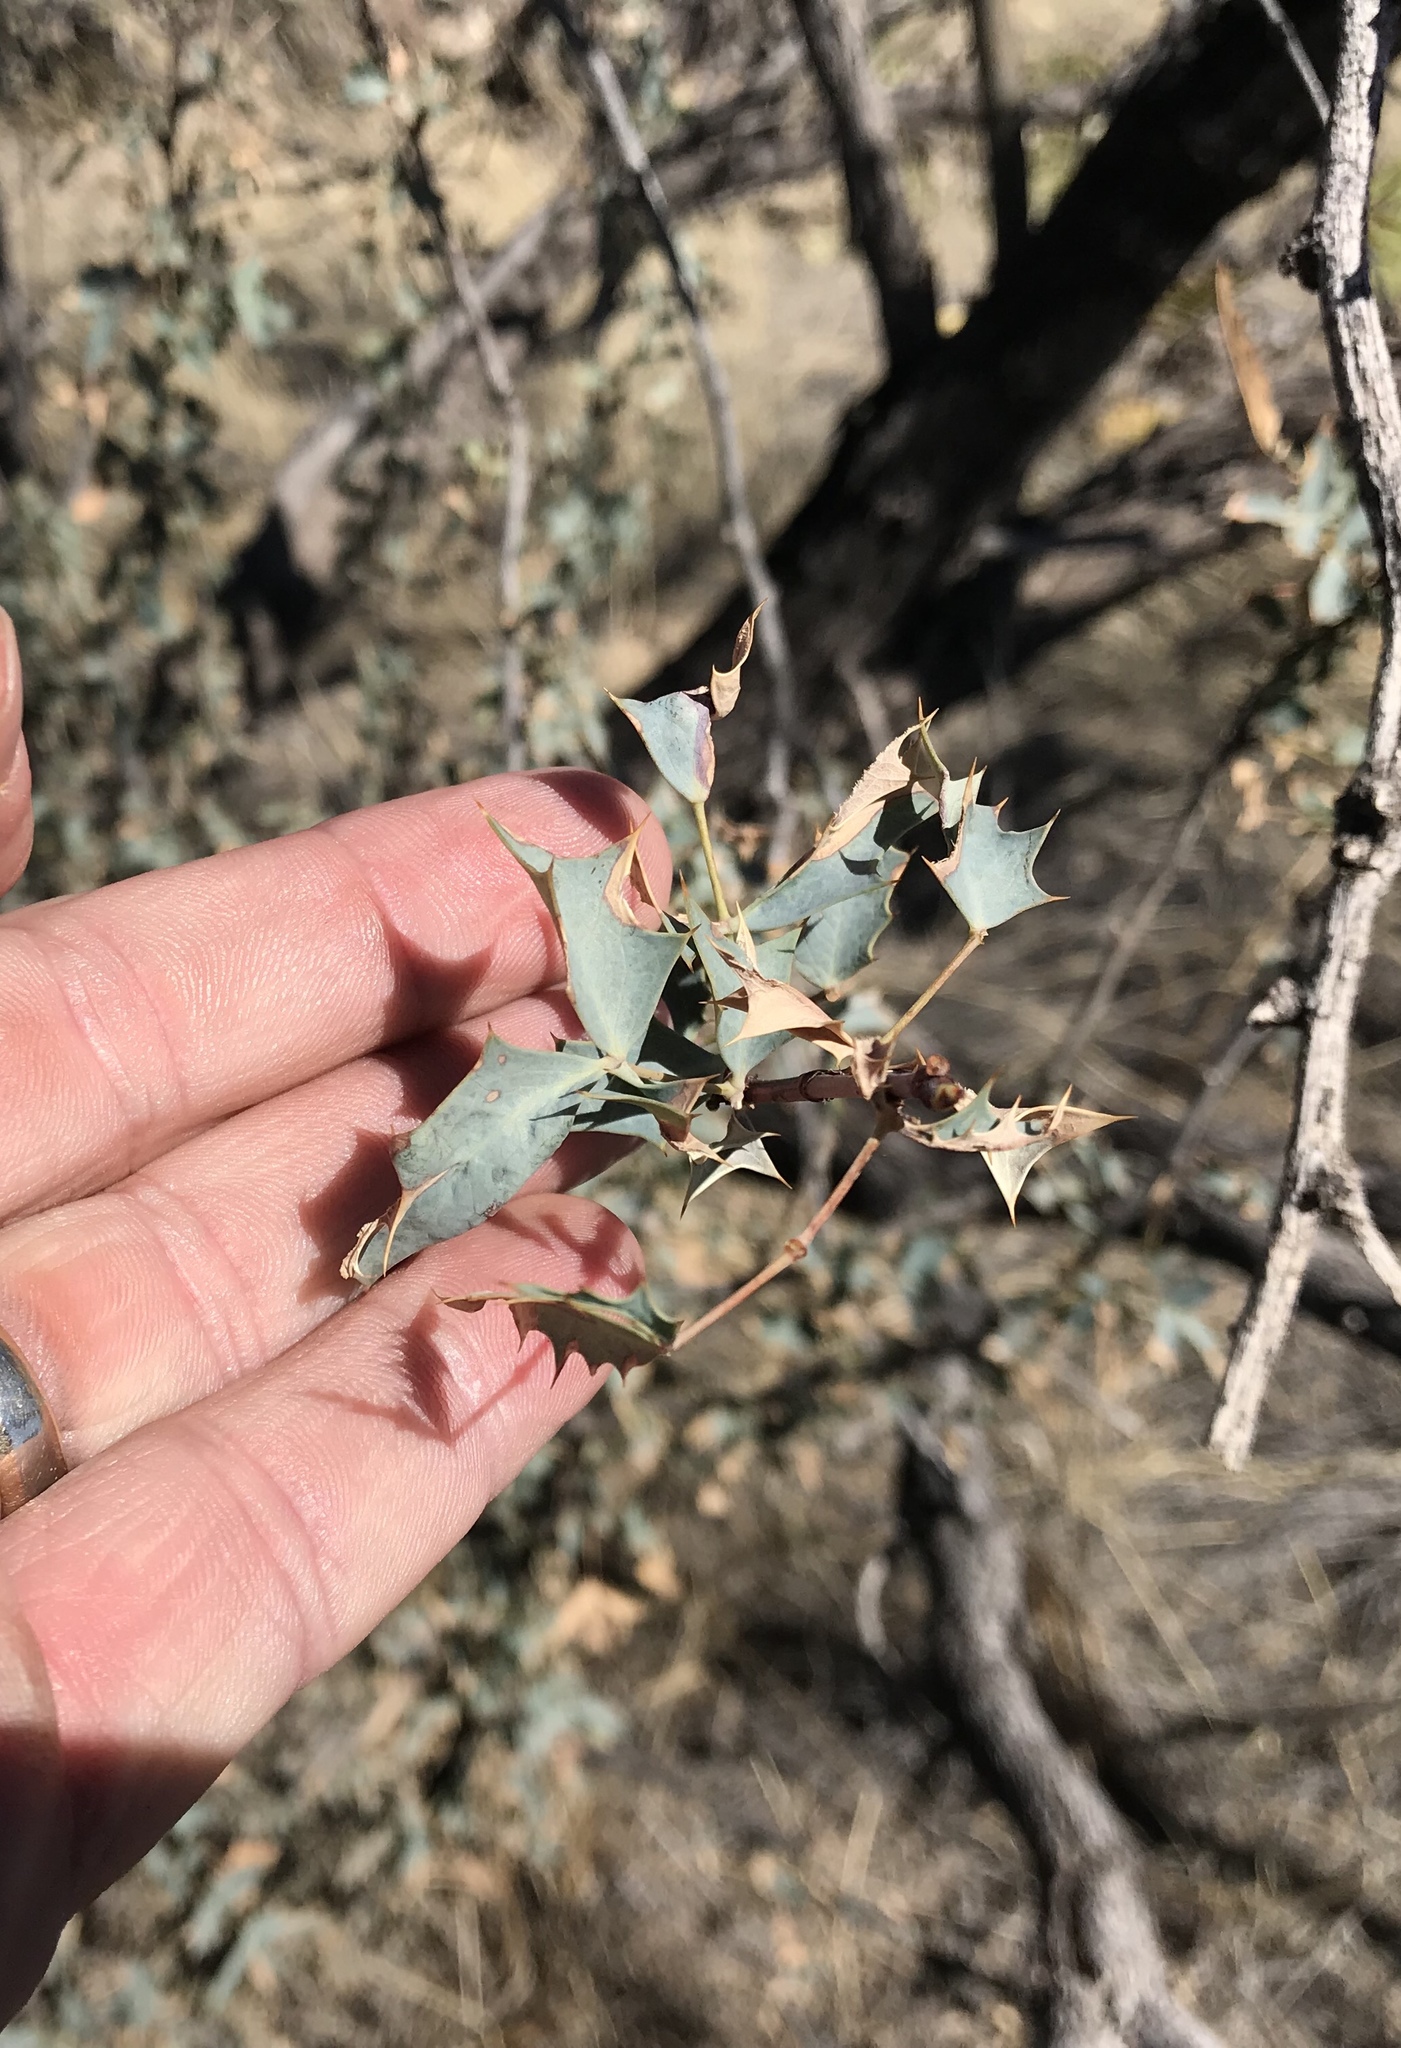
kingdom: Plantae
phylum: Tracheophyta
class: Magnoliopsida
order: Ranunculales
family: Berberidaceae
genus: Alloberberis
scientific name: Alloberberis haematocarpa
